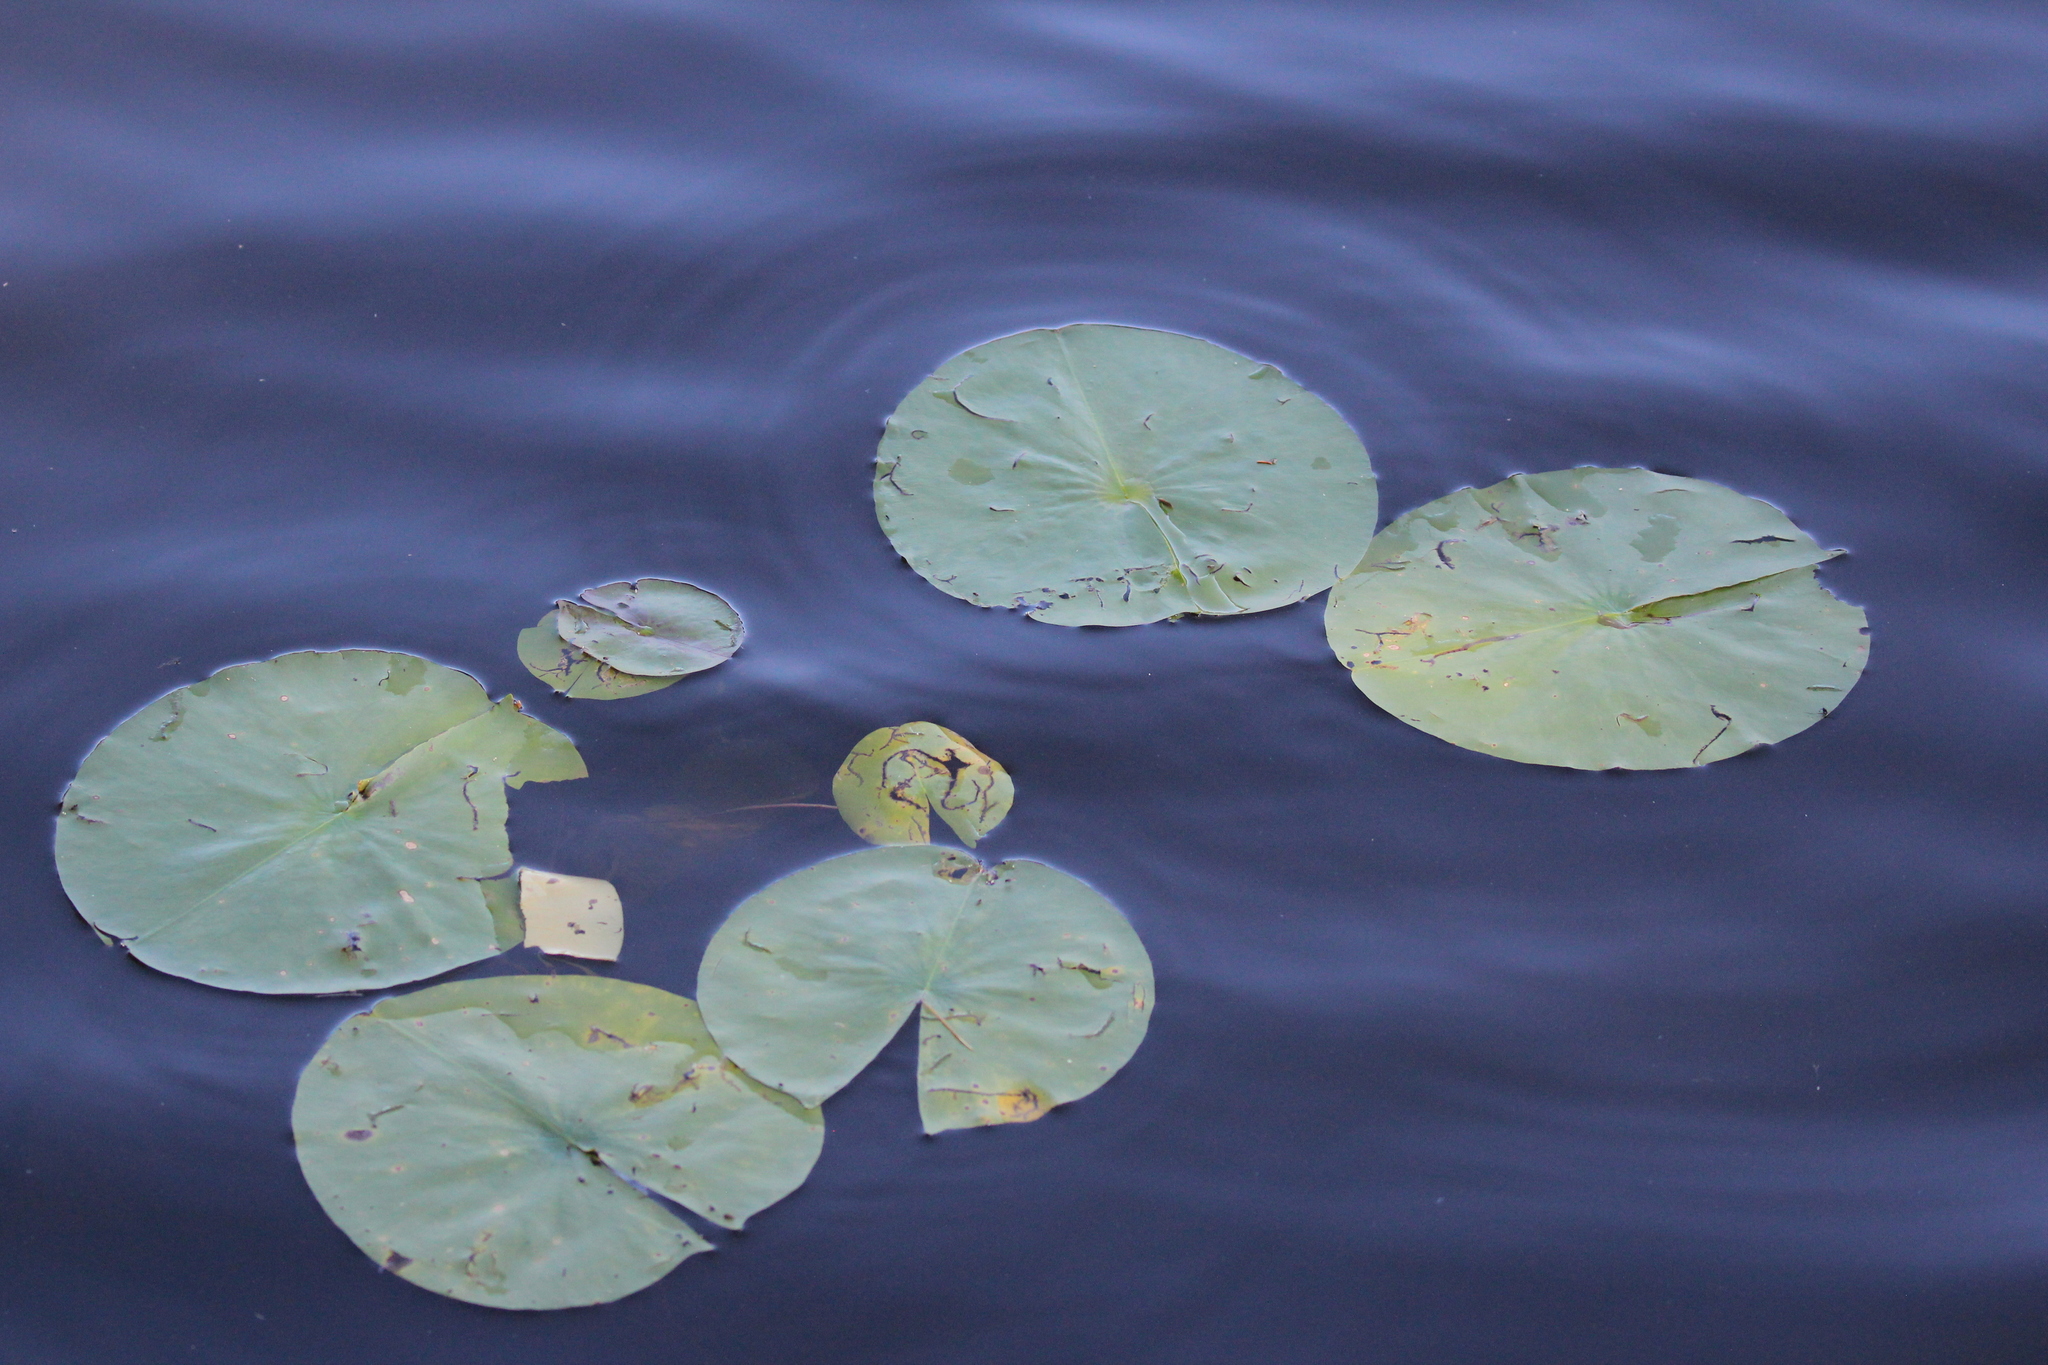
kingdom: Plantae
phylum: Tracheophyta
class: Magnoliopsida
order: Nymphaeales
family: Nymphaeaceae
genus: Nymphaea
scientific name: Nymphaea odorata
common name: Fragrant water-lily
